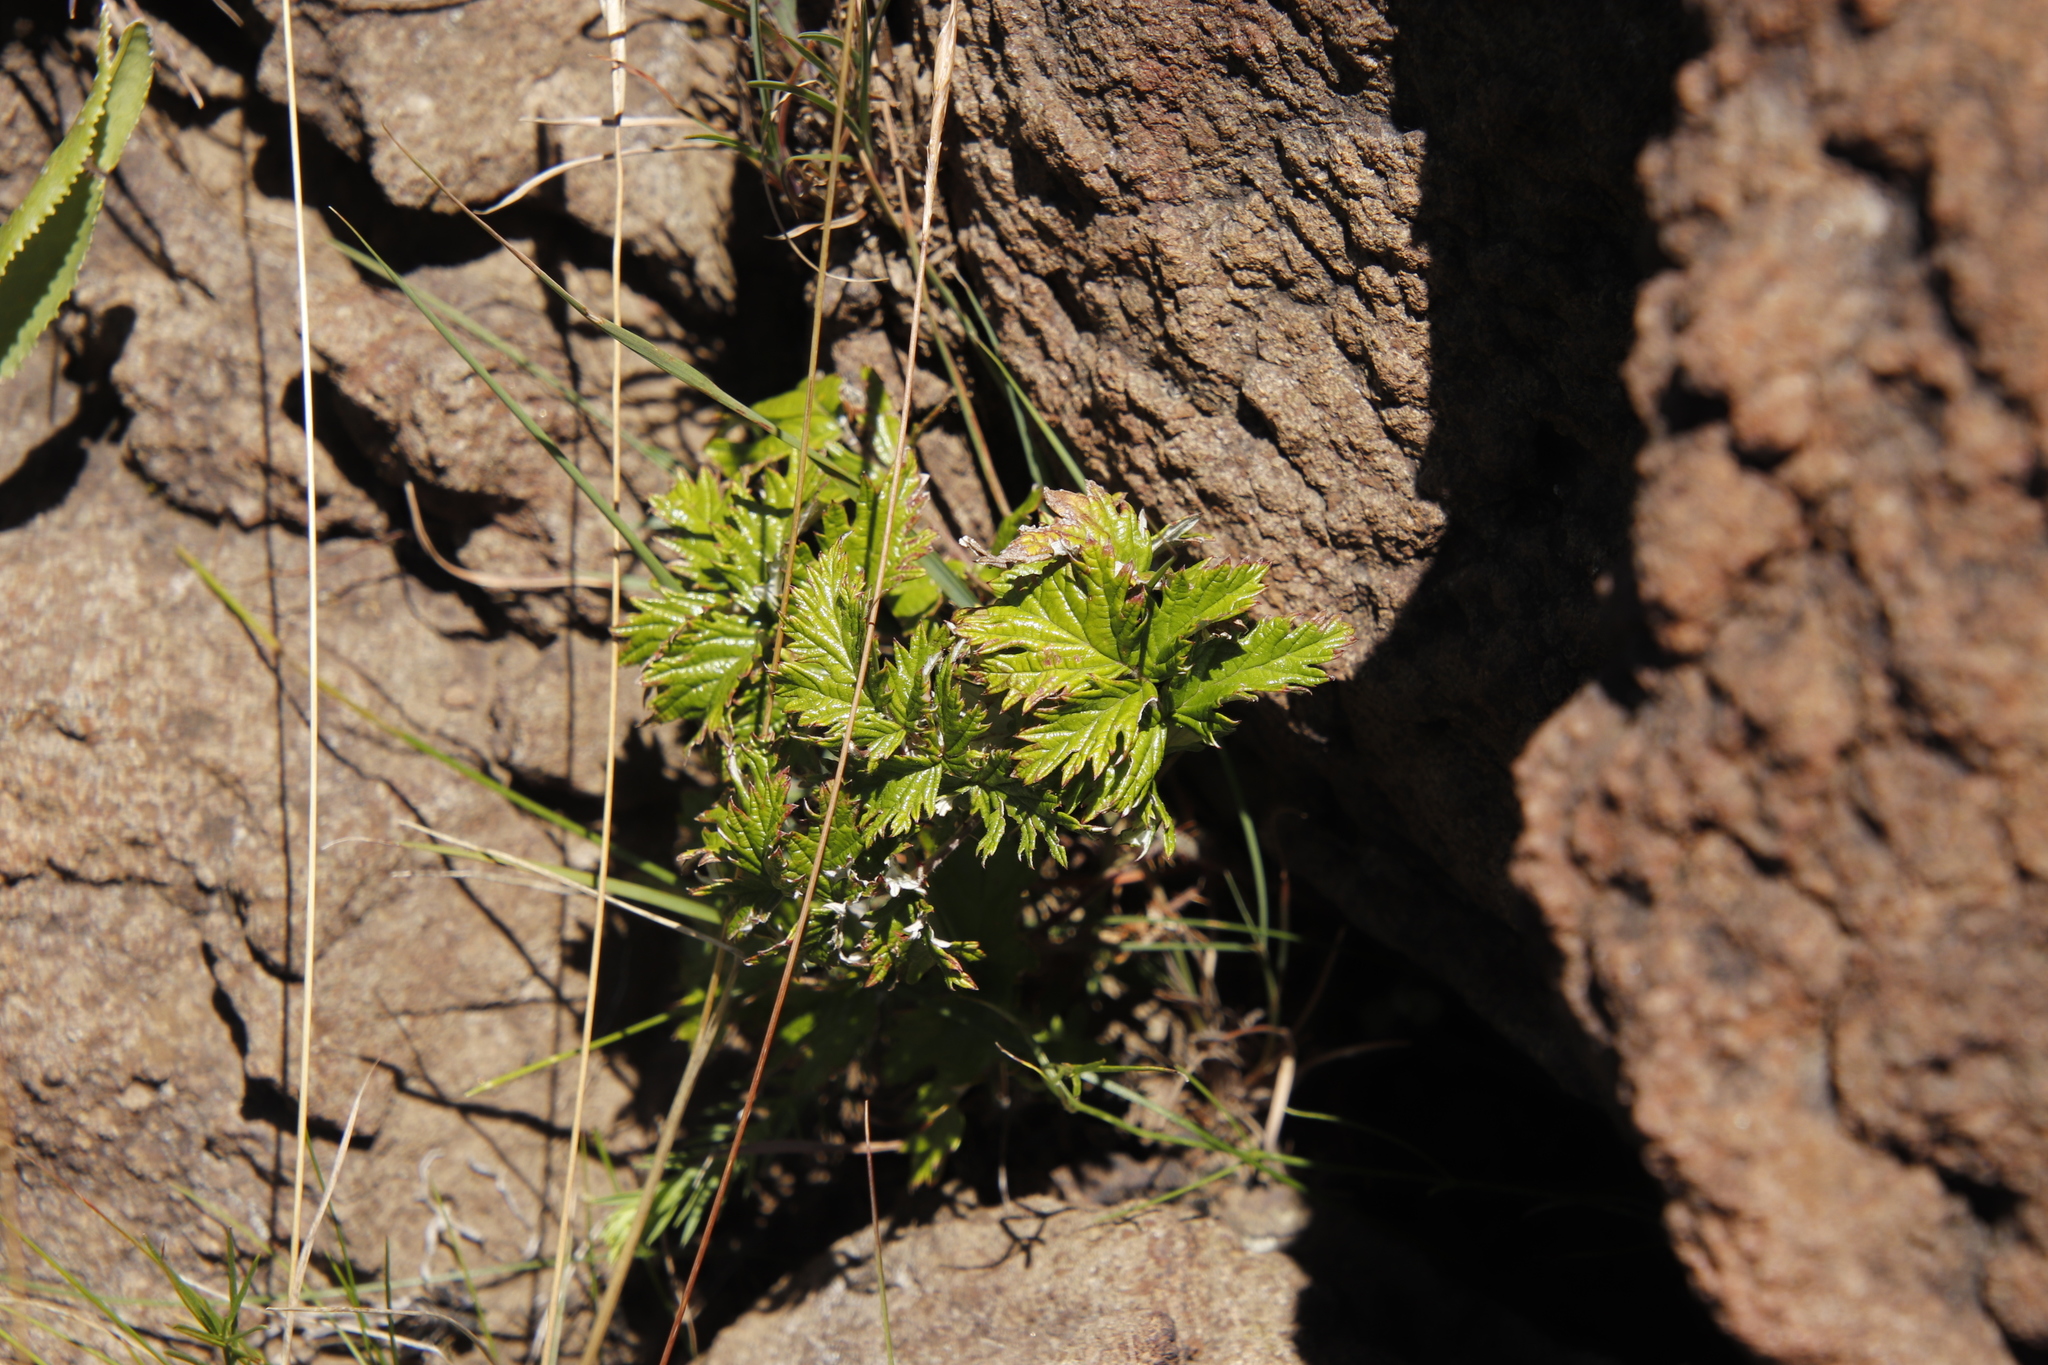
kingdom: Plantae
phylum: Tracheophyta
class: Magnoliopsida
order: Rosales
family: Rosaceae
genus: Rubus
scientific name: Rubus ludwigii
